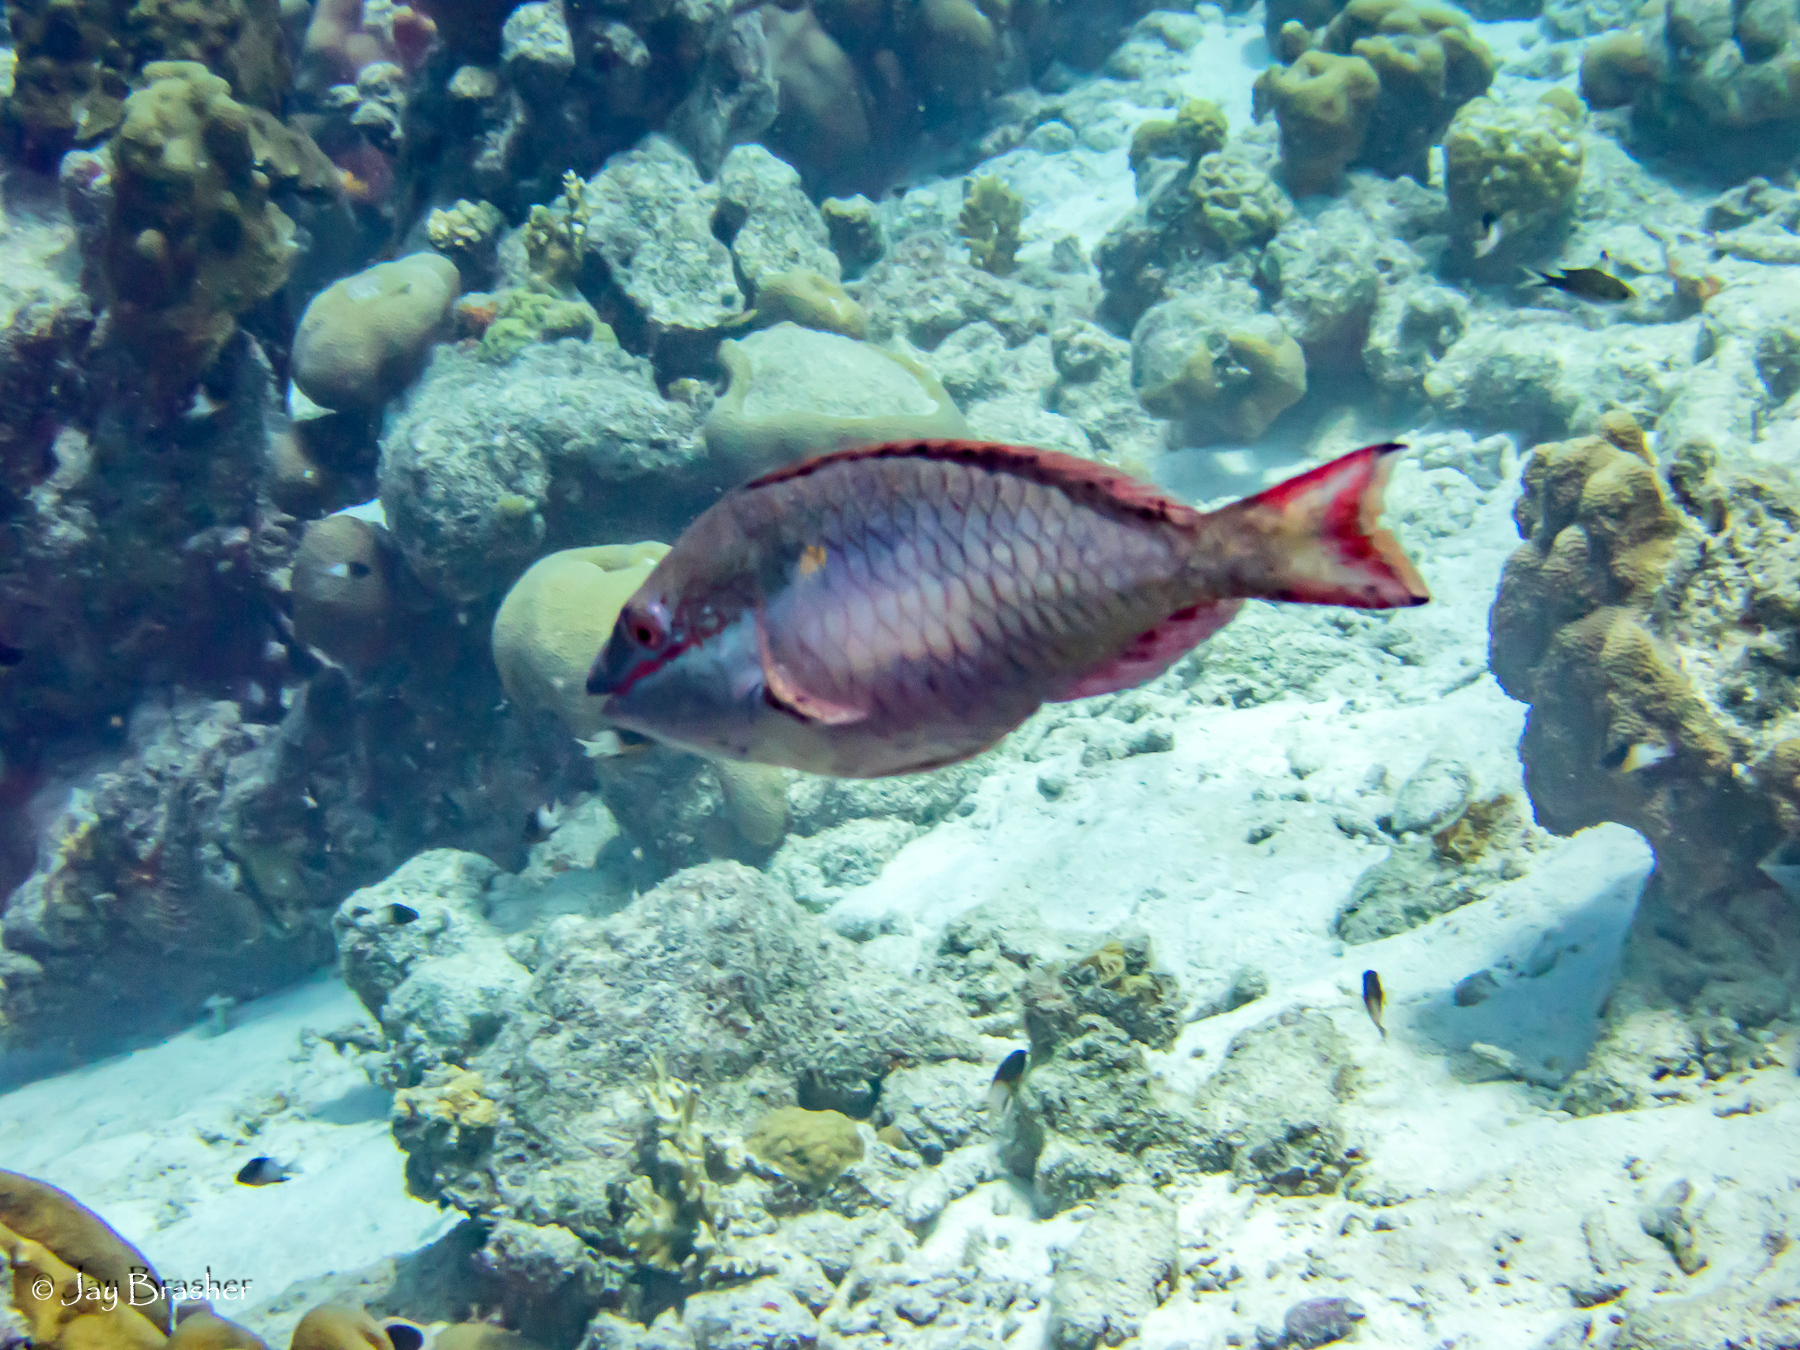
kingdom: Animalia
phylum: Chordata
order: Perciformes
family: Scaridae
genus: Sparisoma
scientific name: Sparisoma aurofrenatum
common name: Redband parrotfish
